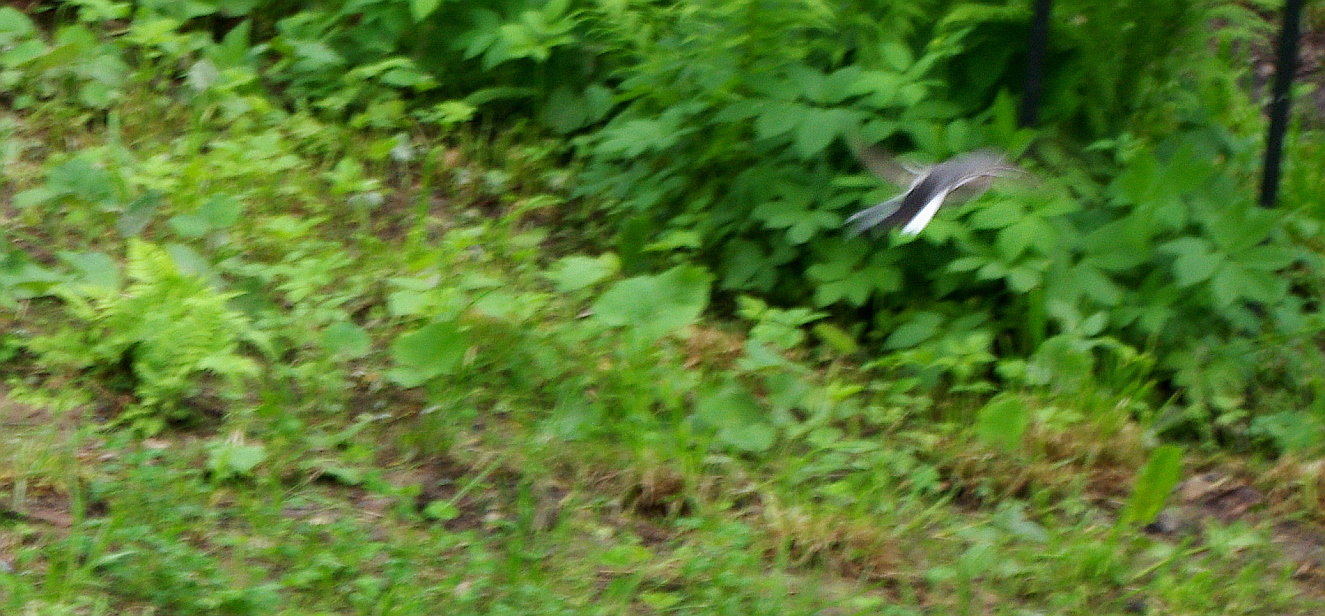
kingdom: Animalia
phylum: Chordata
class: Aves
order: Passeriformes
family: Motacillidae
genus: Motacilla
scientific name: Motacilla alba
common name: White wagtail
